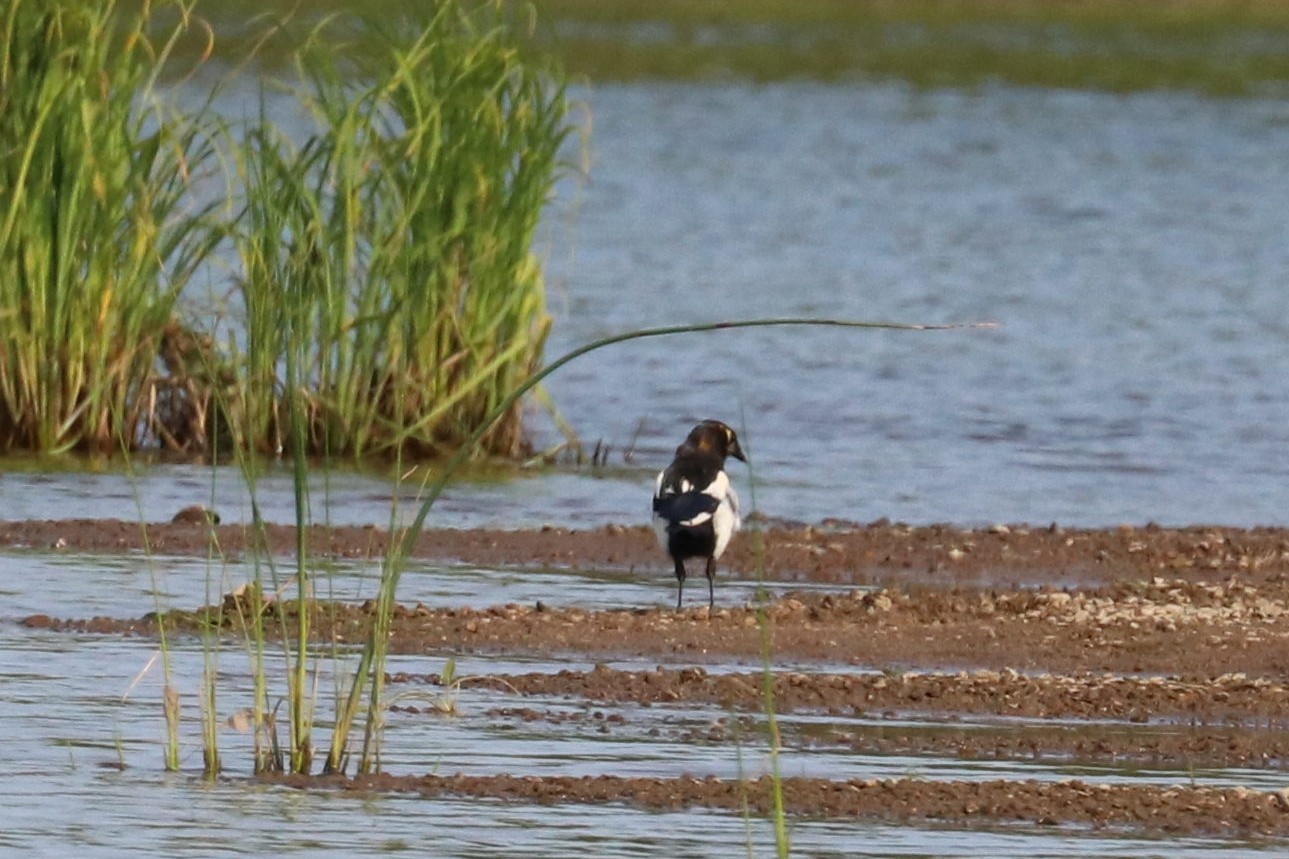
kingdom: Animalia
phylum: Chordata
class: Aves
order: Passeriformes
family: Corvidae
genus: Pica
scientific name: Pica pica
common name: Eurasian magpie
